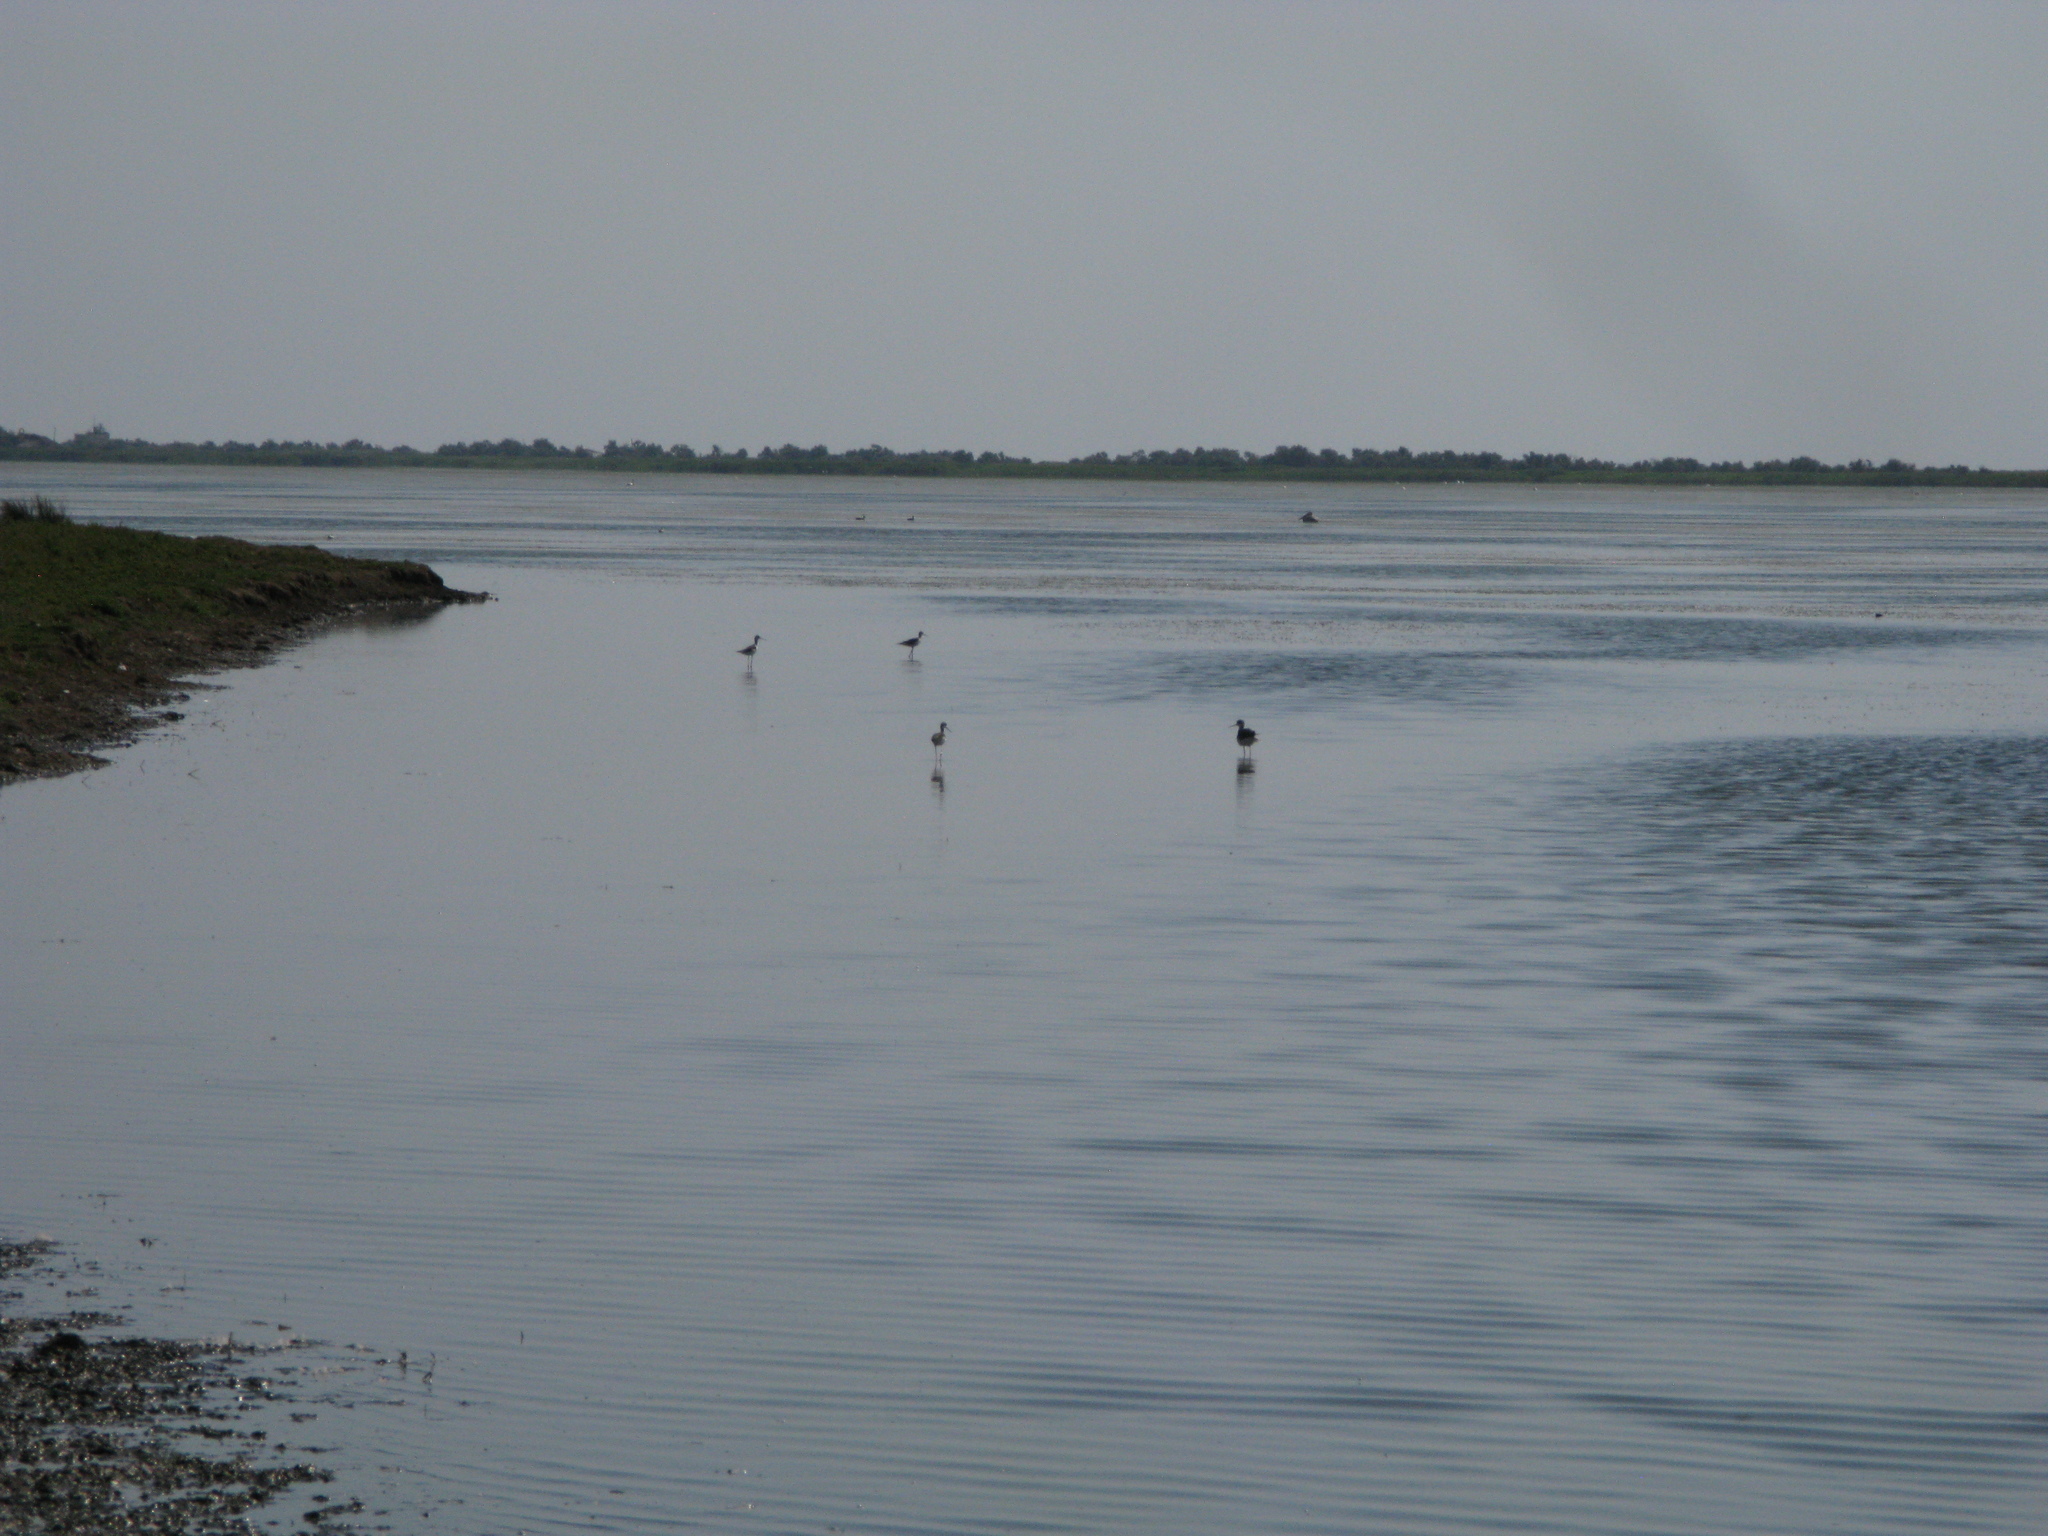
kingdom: Animalia
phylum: Chordata
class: Aves
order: Charadriiformes
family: Recurvirostridae
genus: Himantopus
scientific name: Himantopus himantopus
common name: Black-winged stilt
